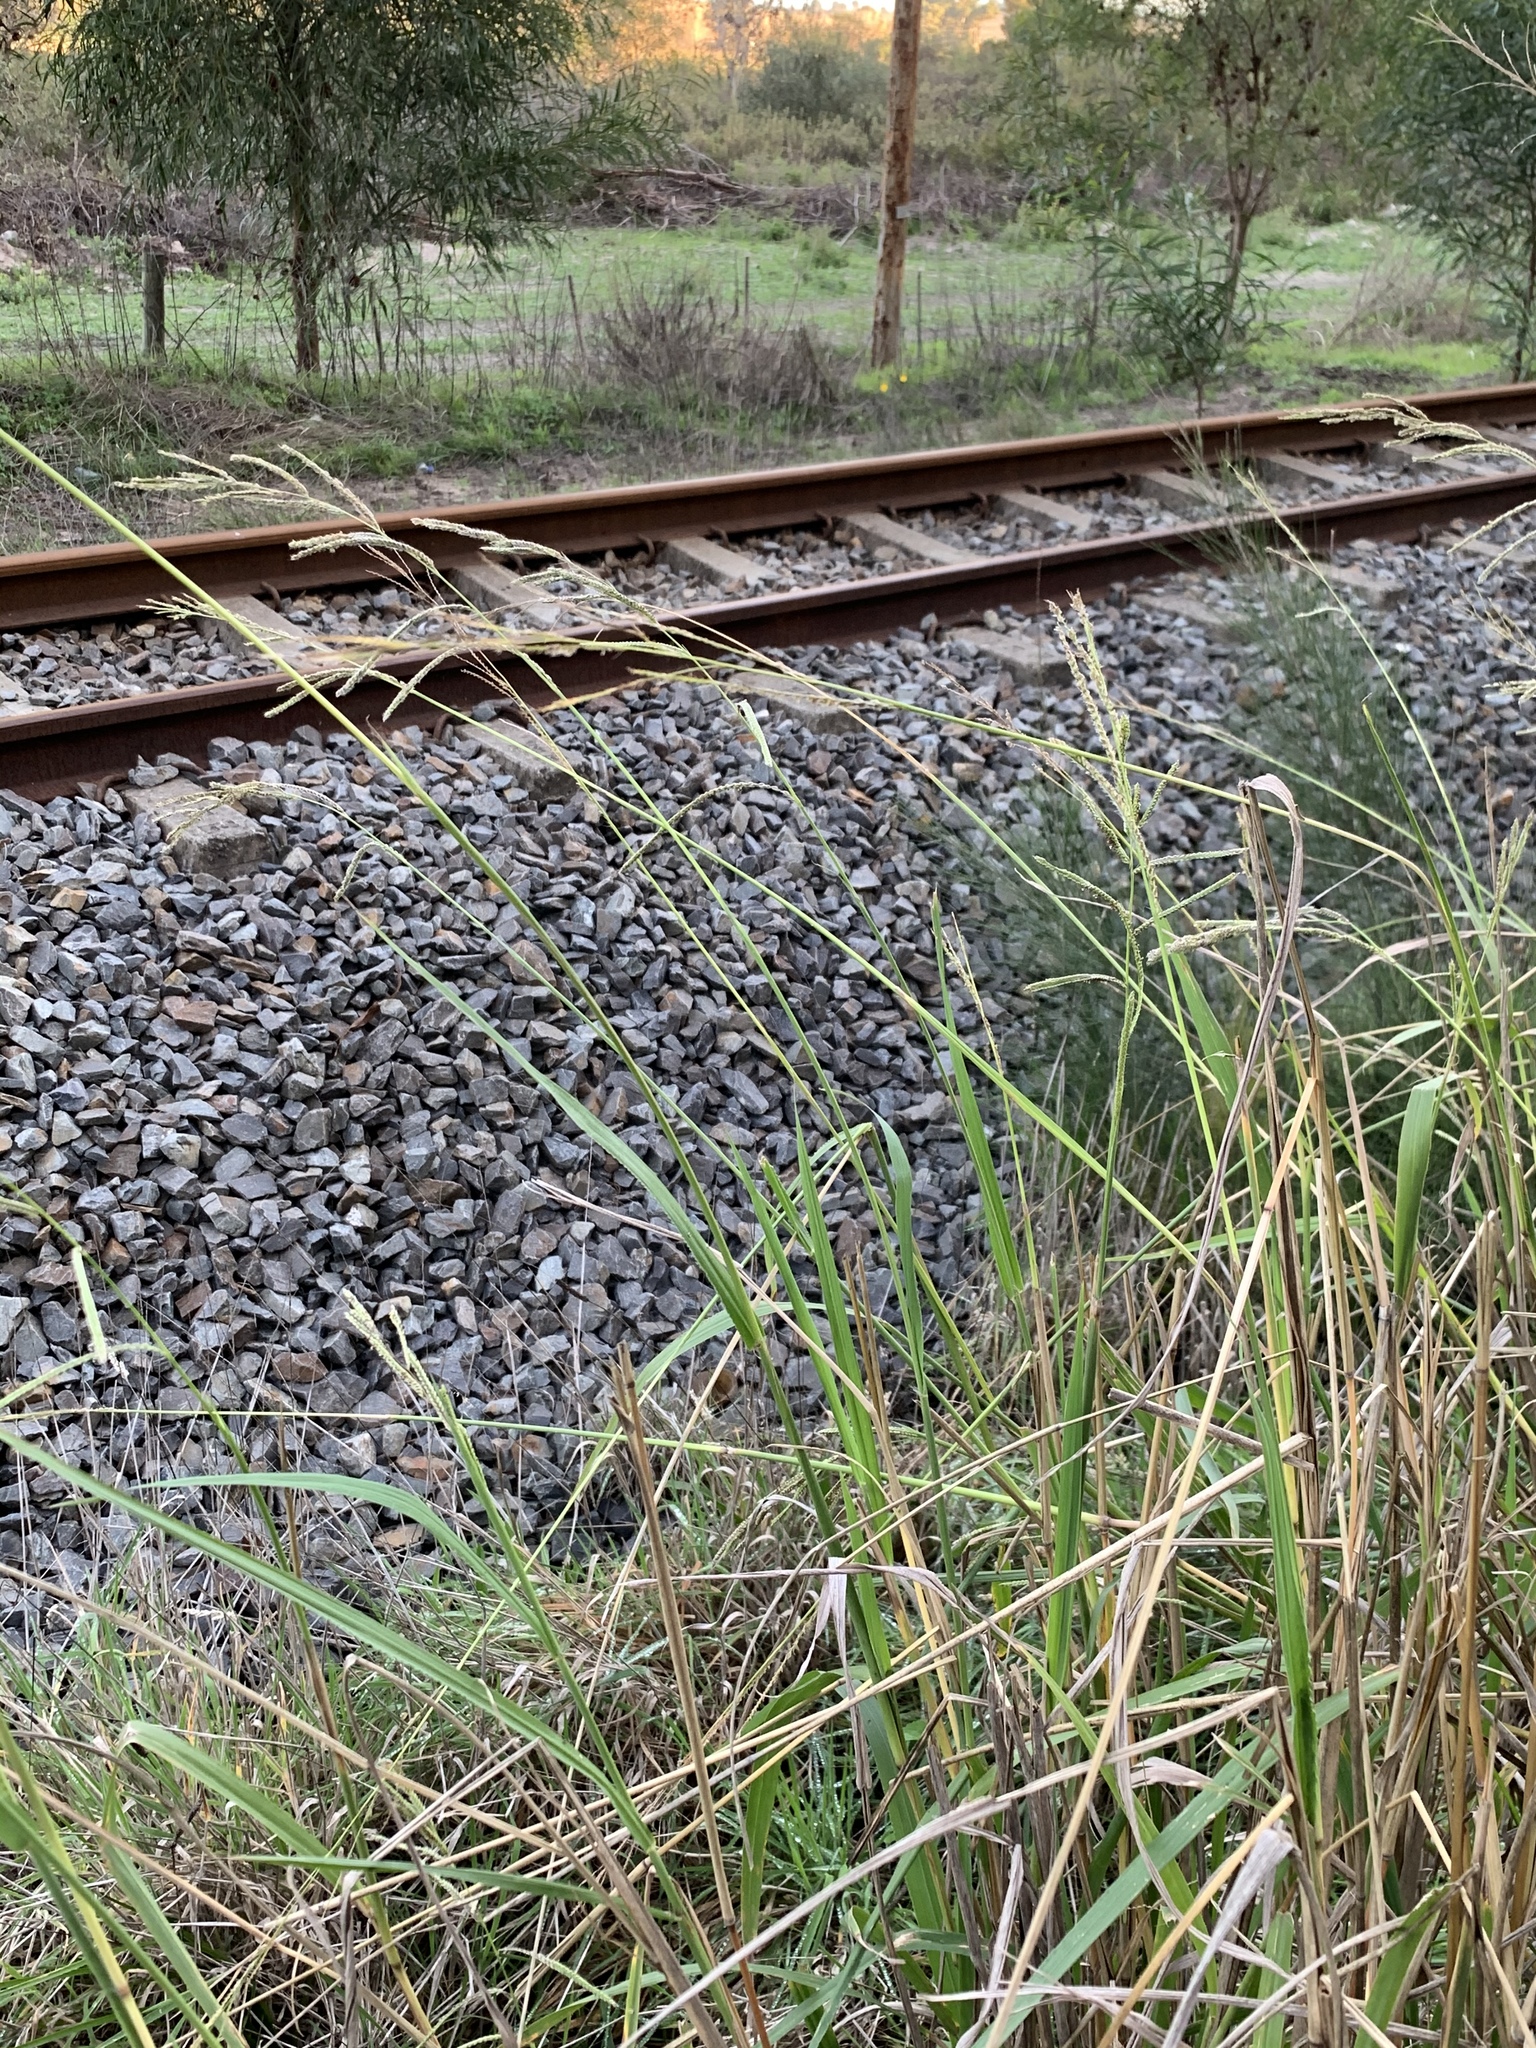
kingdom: Plantae
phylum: Tracheophyta
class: Liliopsida
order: Poales
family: Poaceae
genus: Paspalum
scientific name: Paspalum urvillei
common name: Vasey's grass
